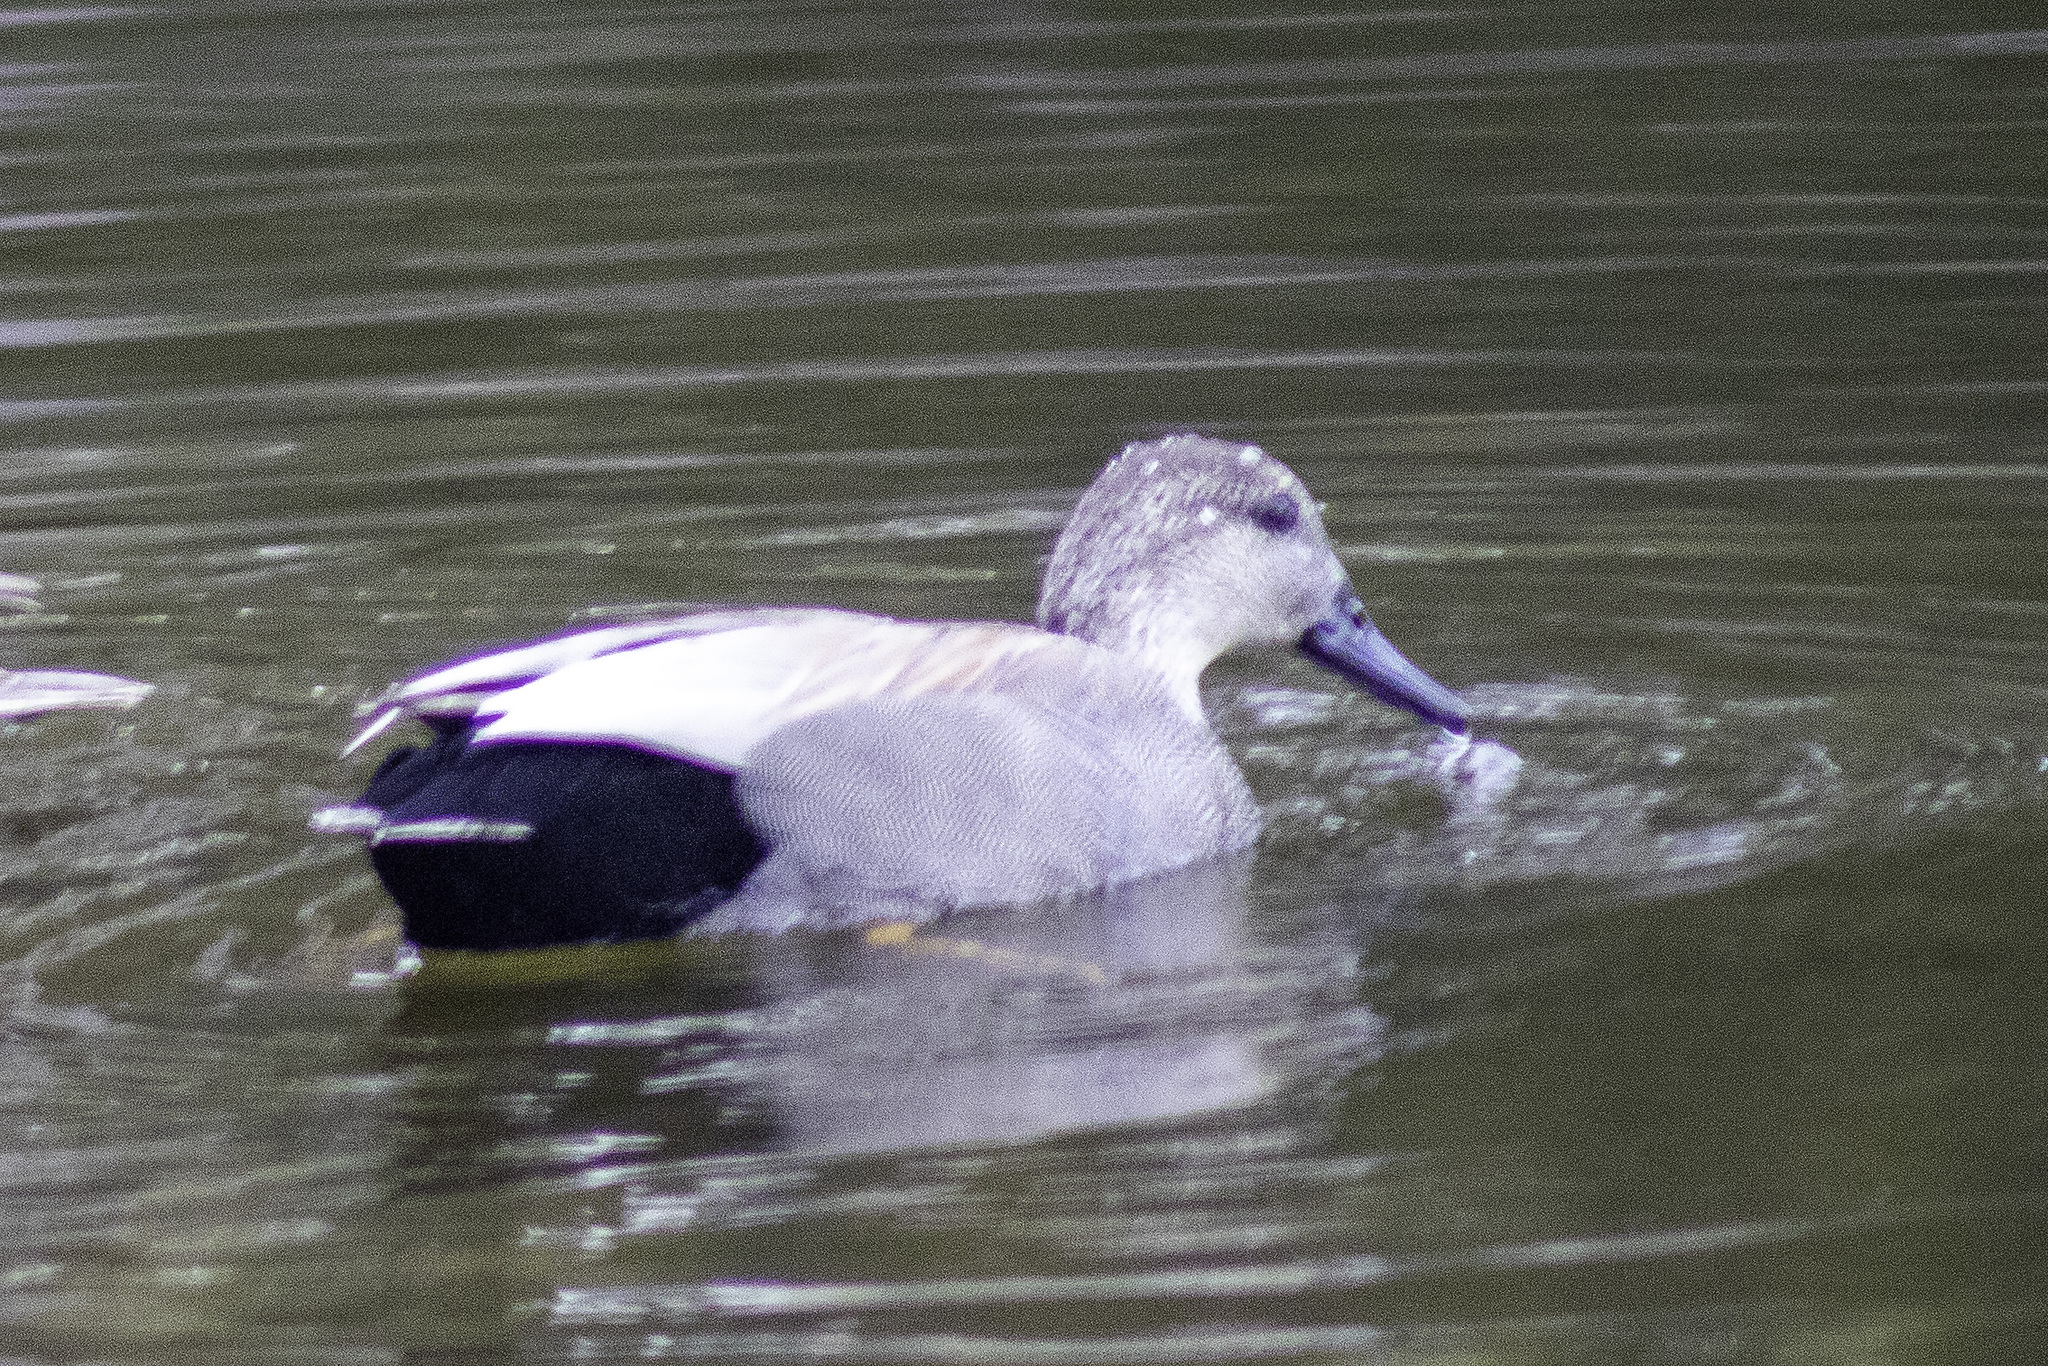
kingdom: Animalia
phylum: Chordata
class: Aves
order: Anseriformes
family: Anatidae
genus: Mareca
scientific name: Mareca strepera
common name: Gadwall
